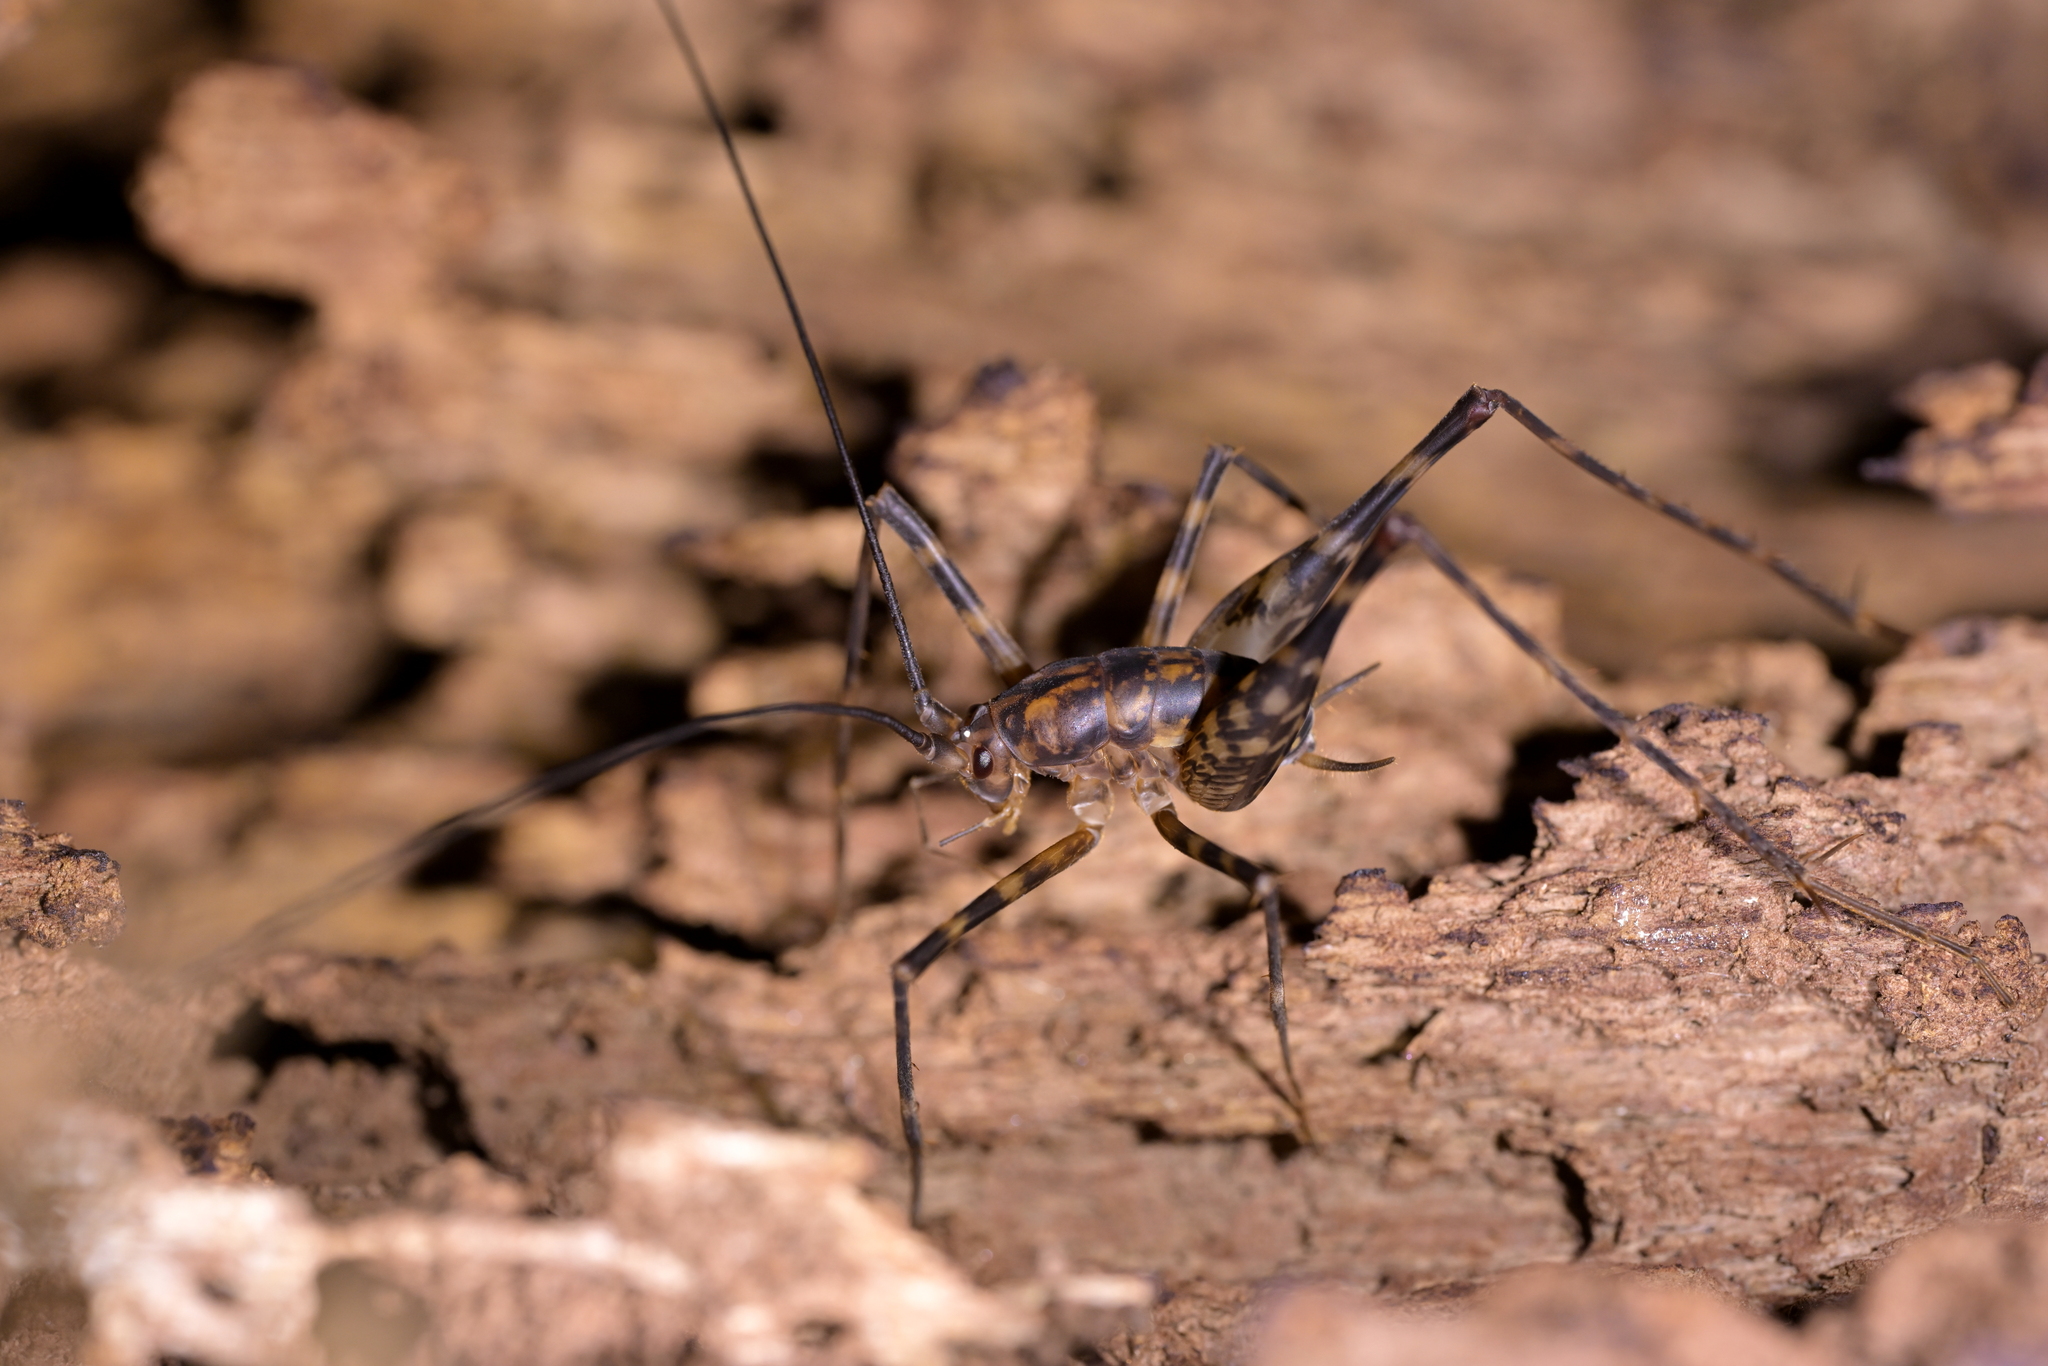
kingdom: Animalia
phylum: Arthropoda
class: Insecta
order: Orthoptera
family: Rhaphidophoridae
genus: Miotopus
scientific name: Miotopus richardsae
